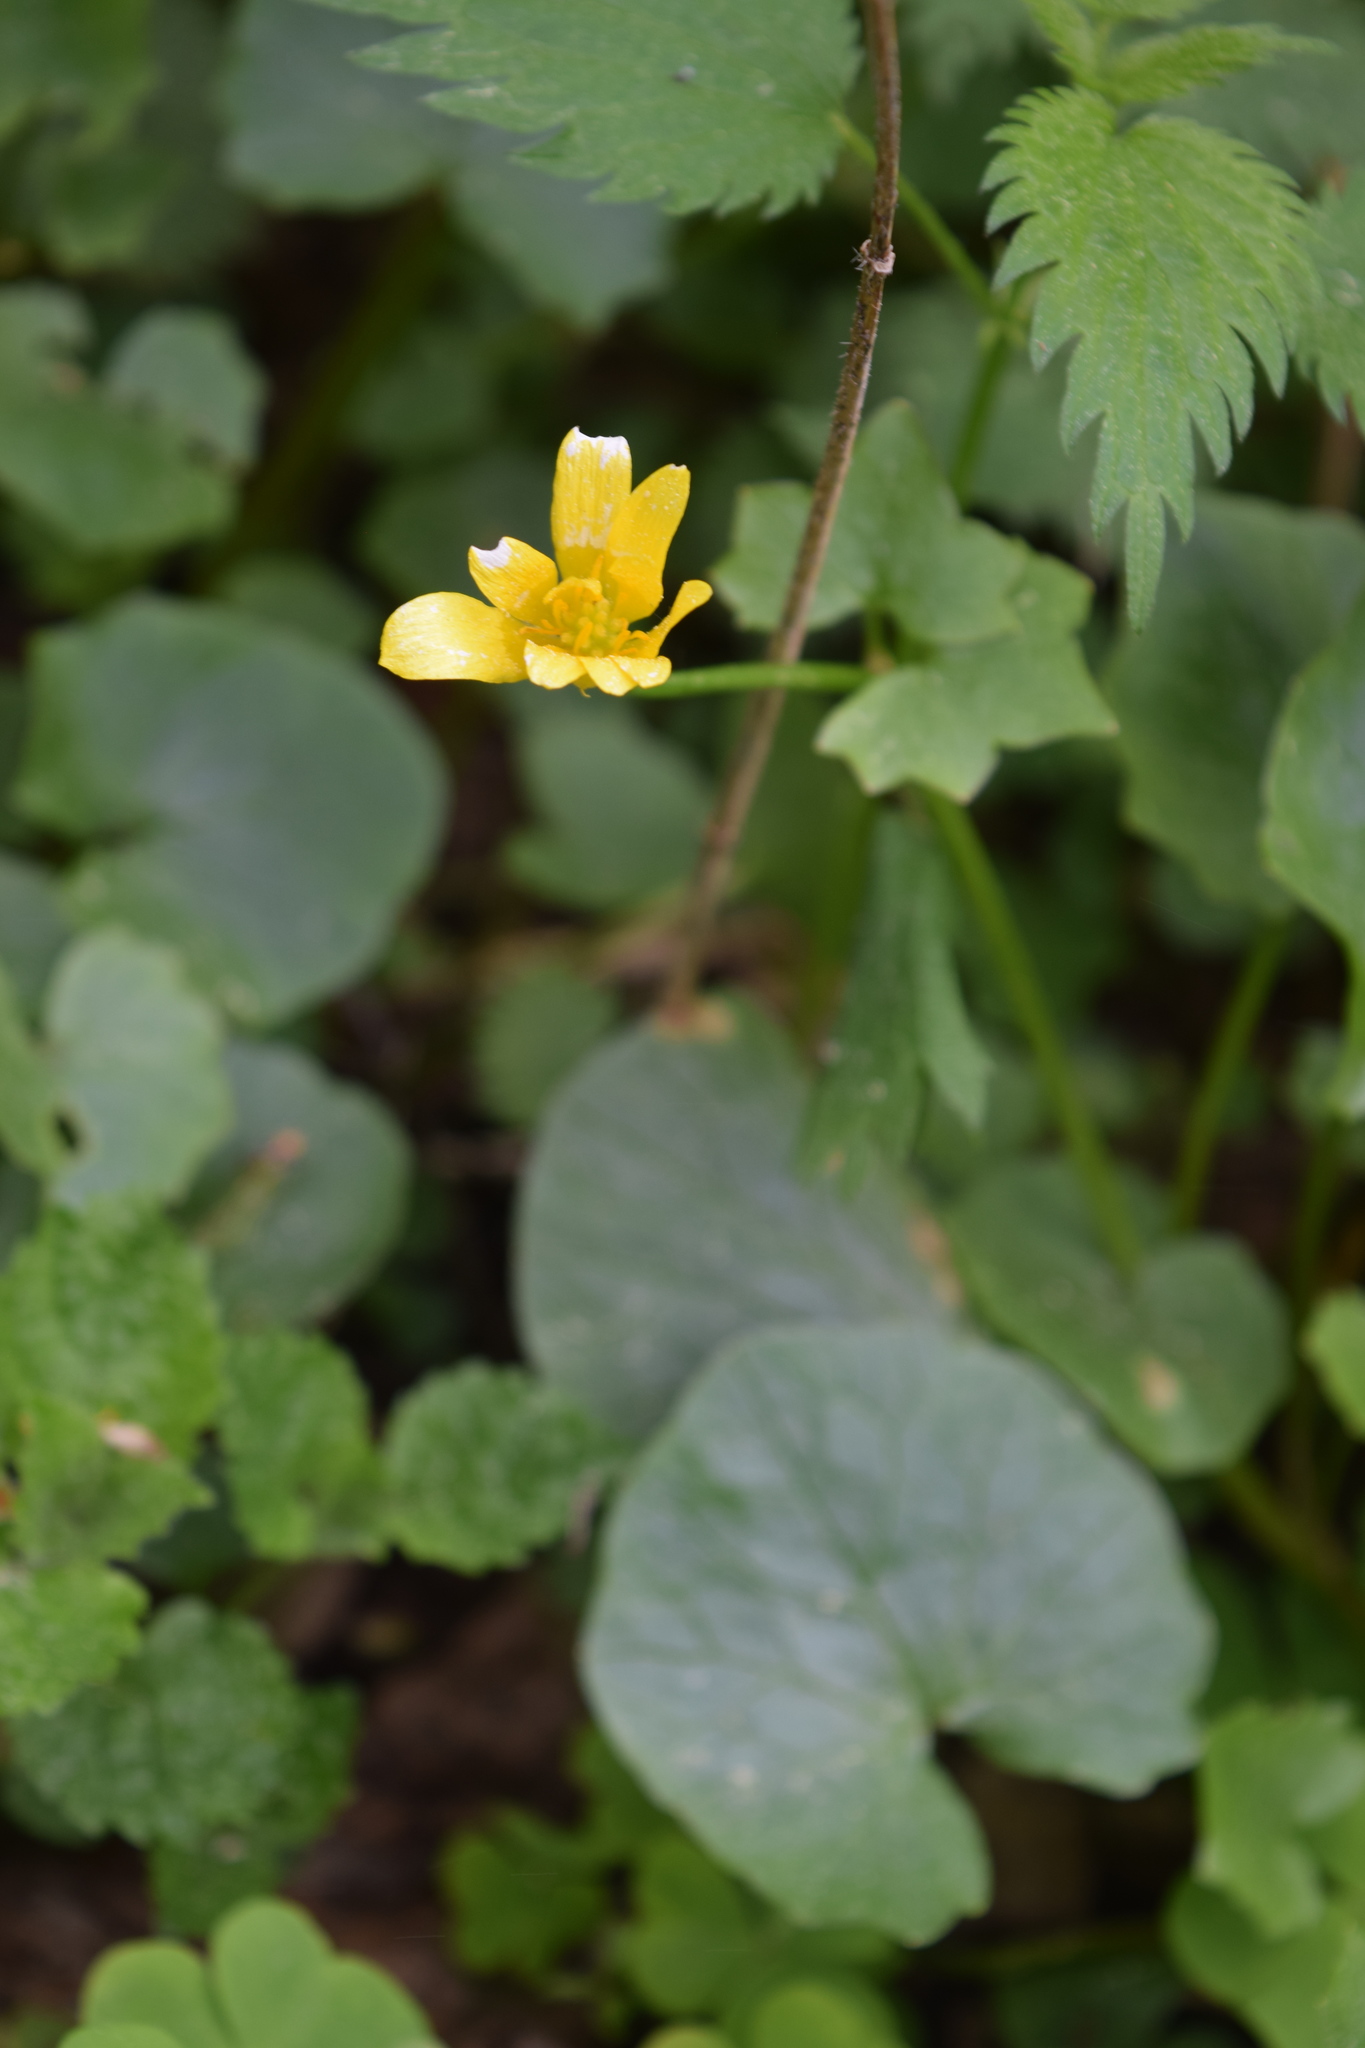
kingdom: Plantae
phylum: Tracheophyta
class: Magnoliopsida
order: Ranunculales
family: Ranunculaceae
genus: Ficaria
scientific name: Ficaria verna
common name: Lesser celandine
